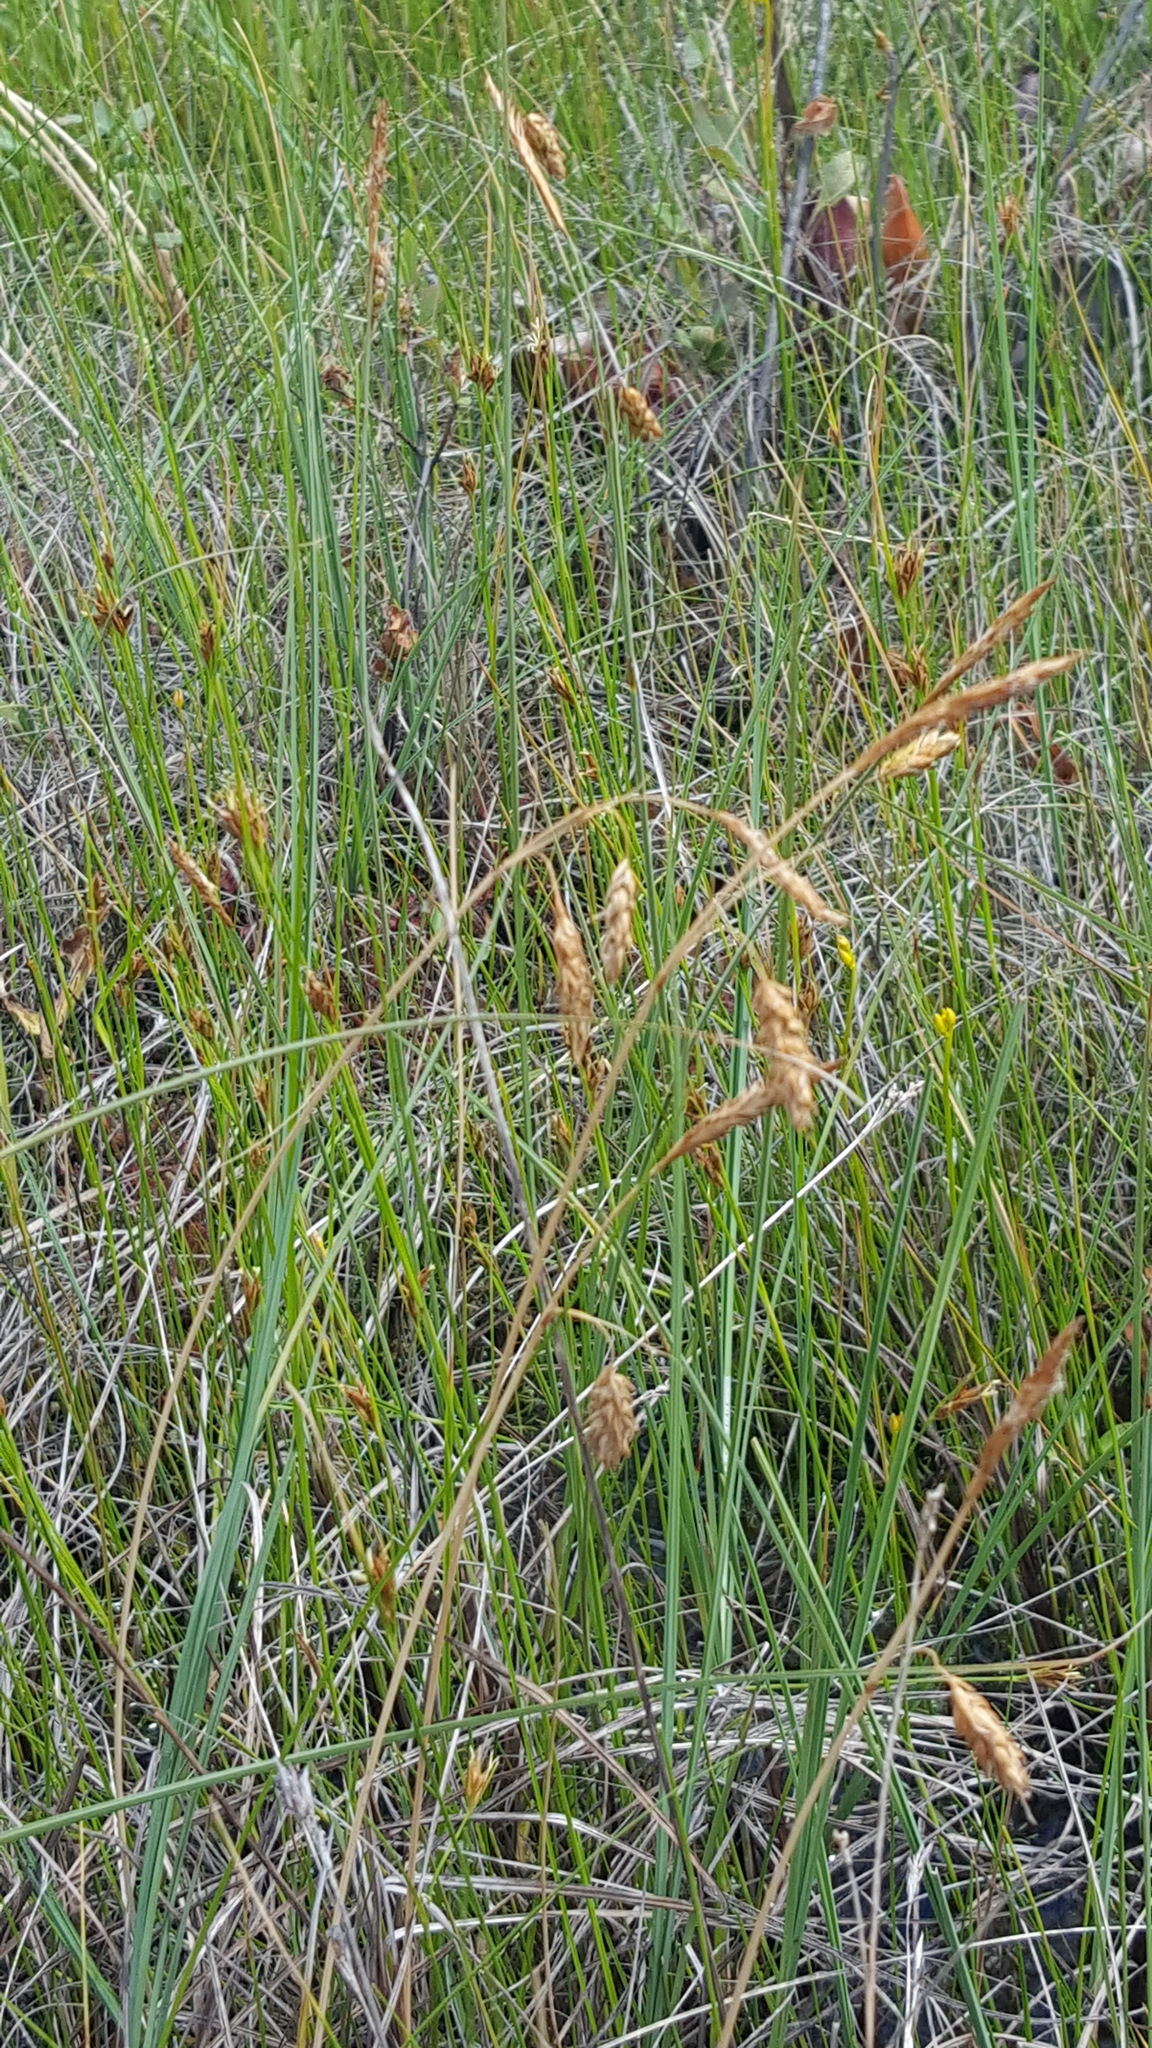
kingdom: Plantae
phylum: Tracheophyta
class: Liliopsida
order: Poales
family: Cyperaceae
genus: Carex
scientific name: Carex limosa
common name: Bog sedge
